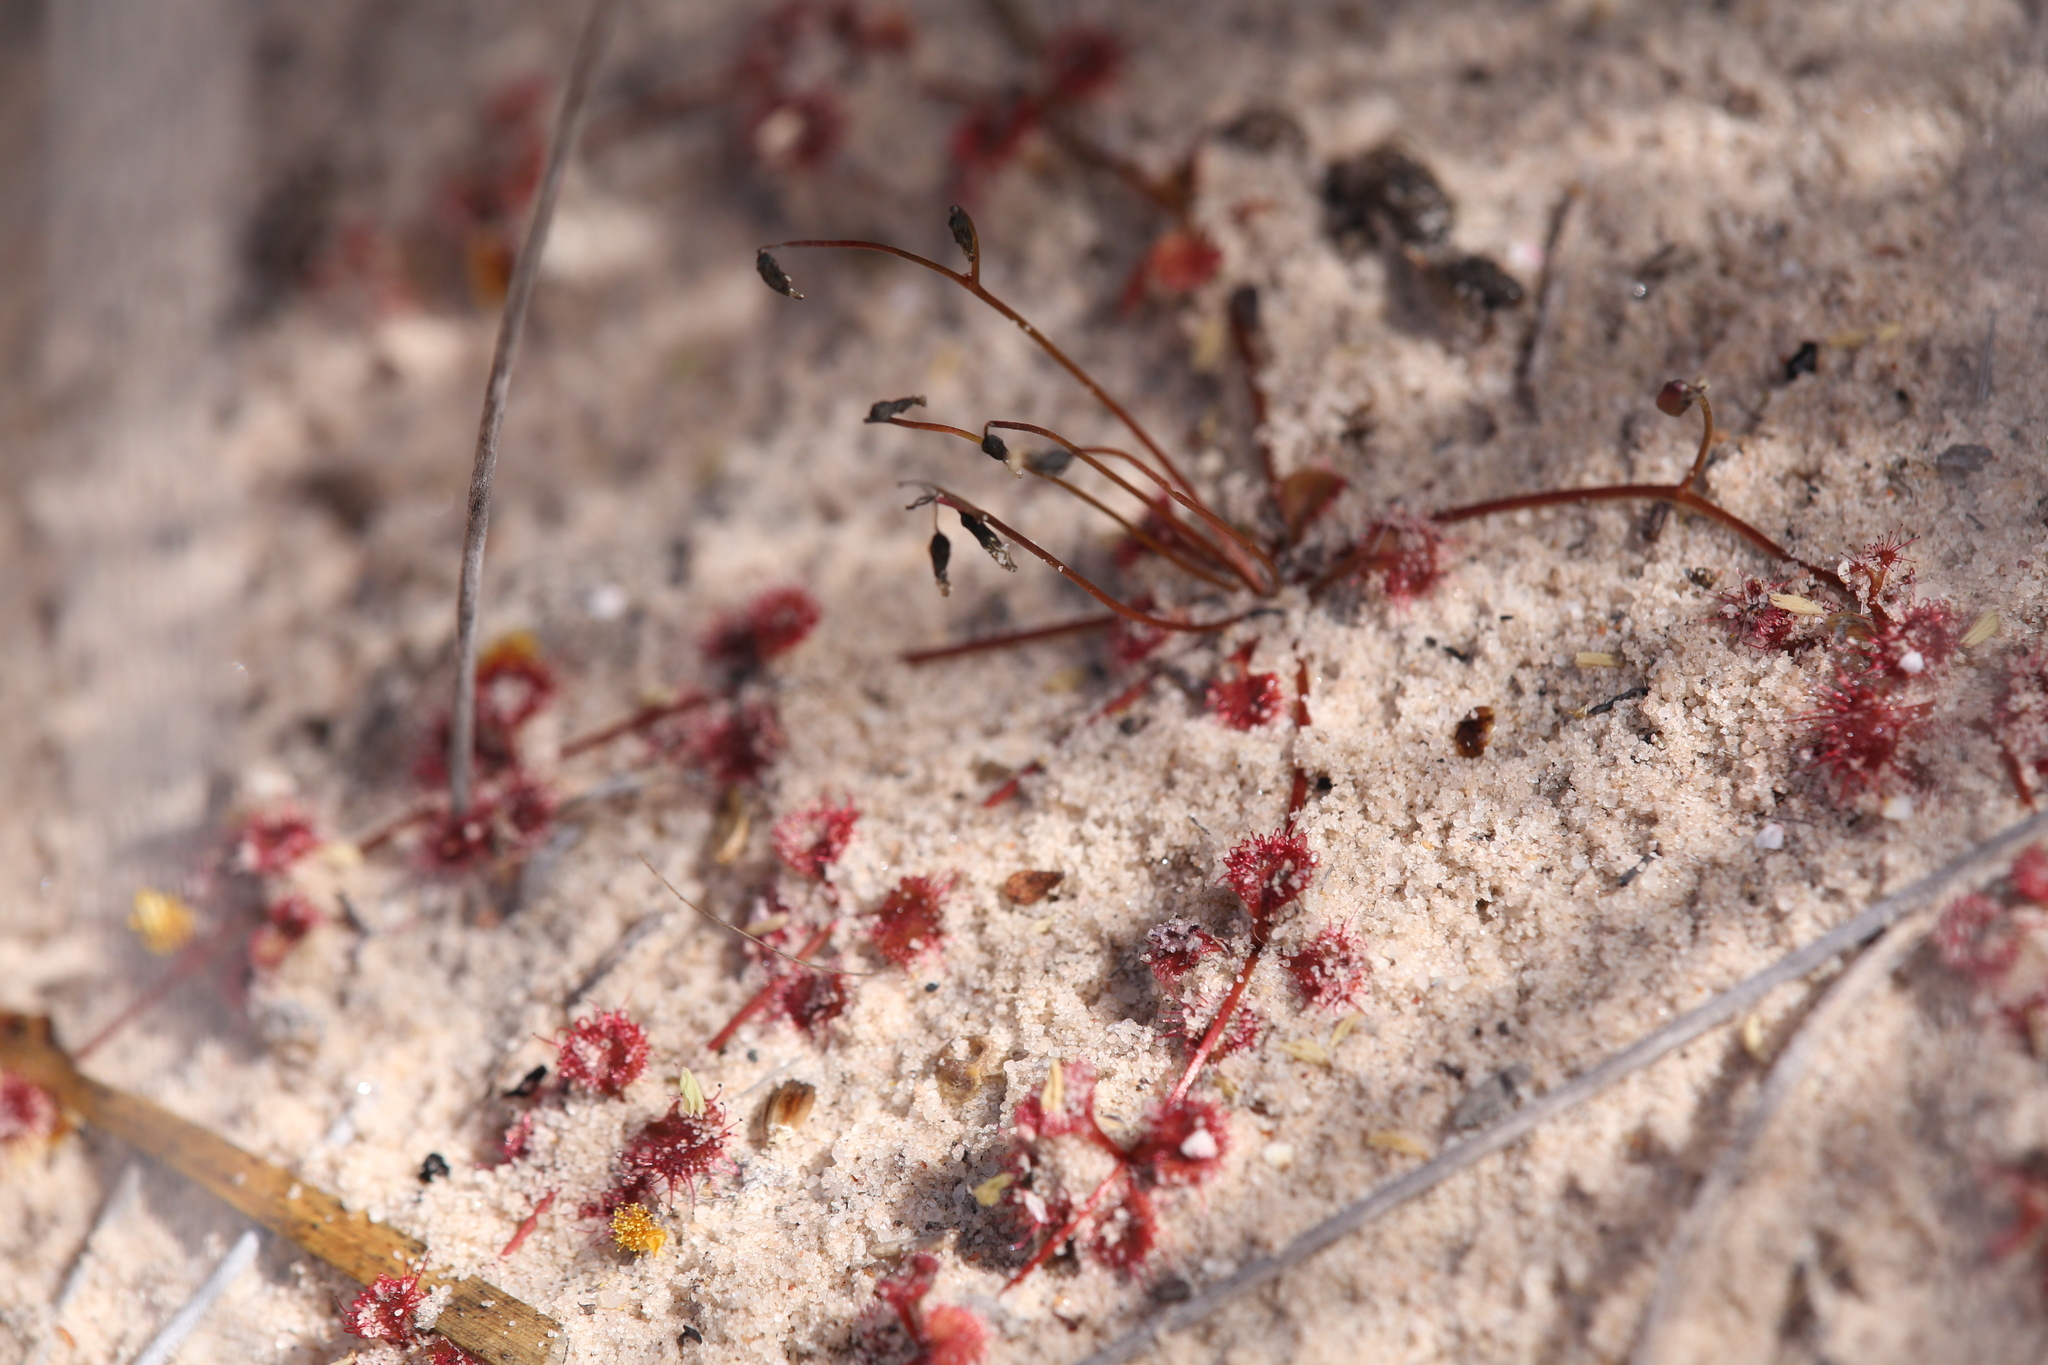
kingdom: Plantae
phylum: Tracheophyta
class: Magnoliopsida
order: Caryophyllales
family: Droseraceae
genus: Drosera
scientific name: Drosera prostrata
